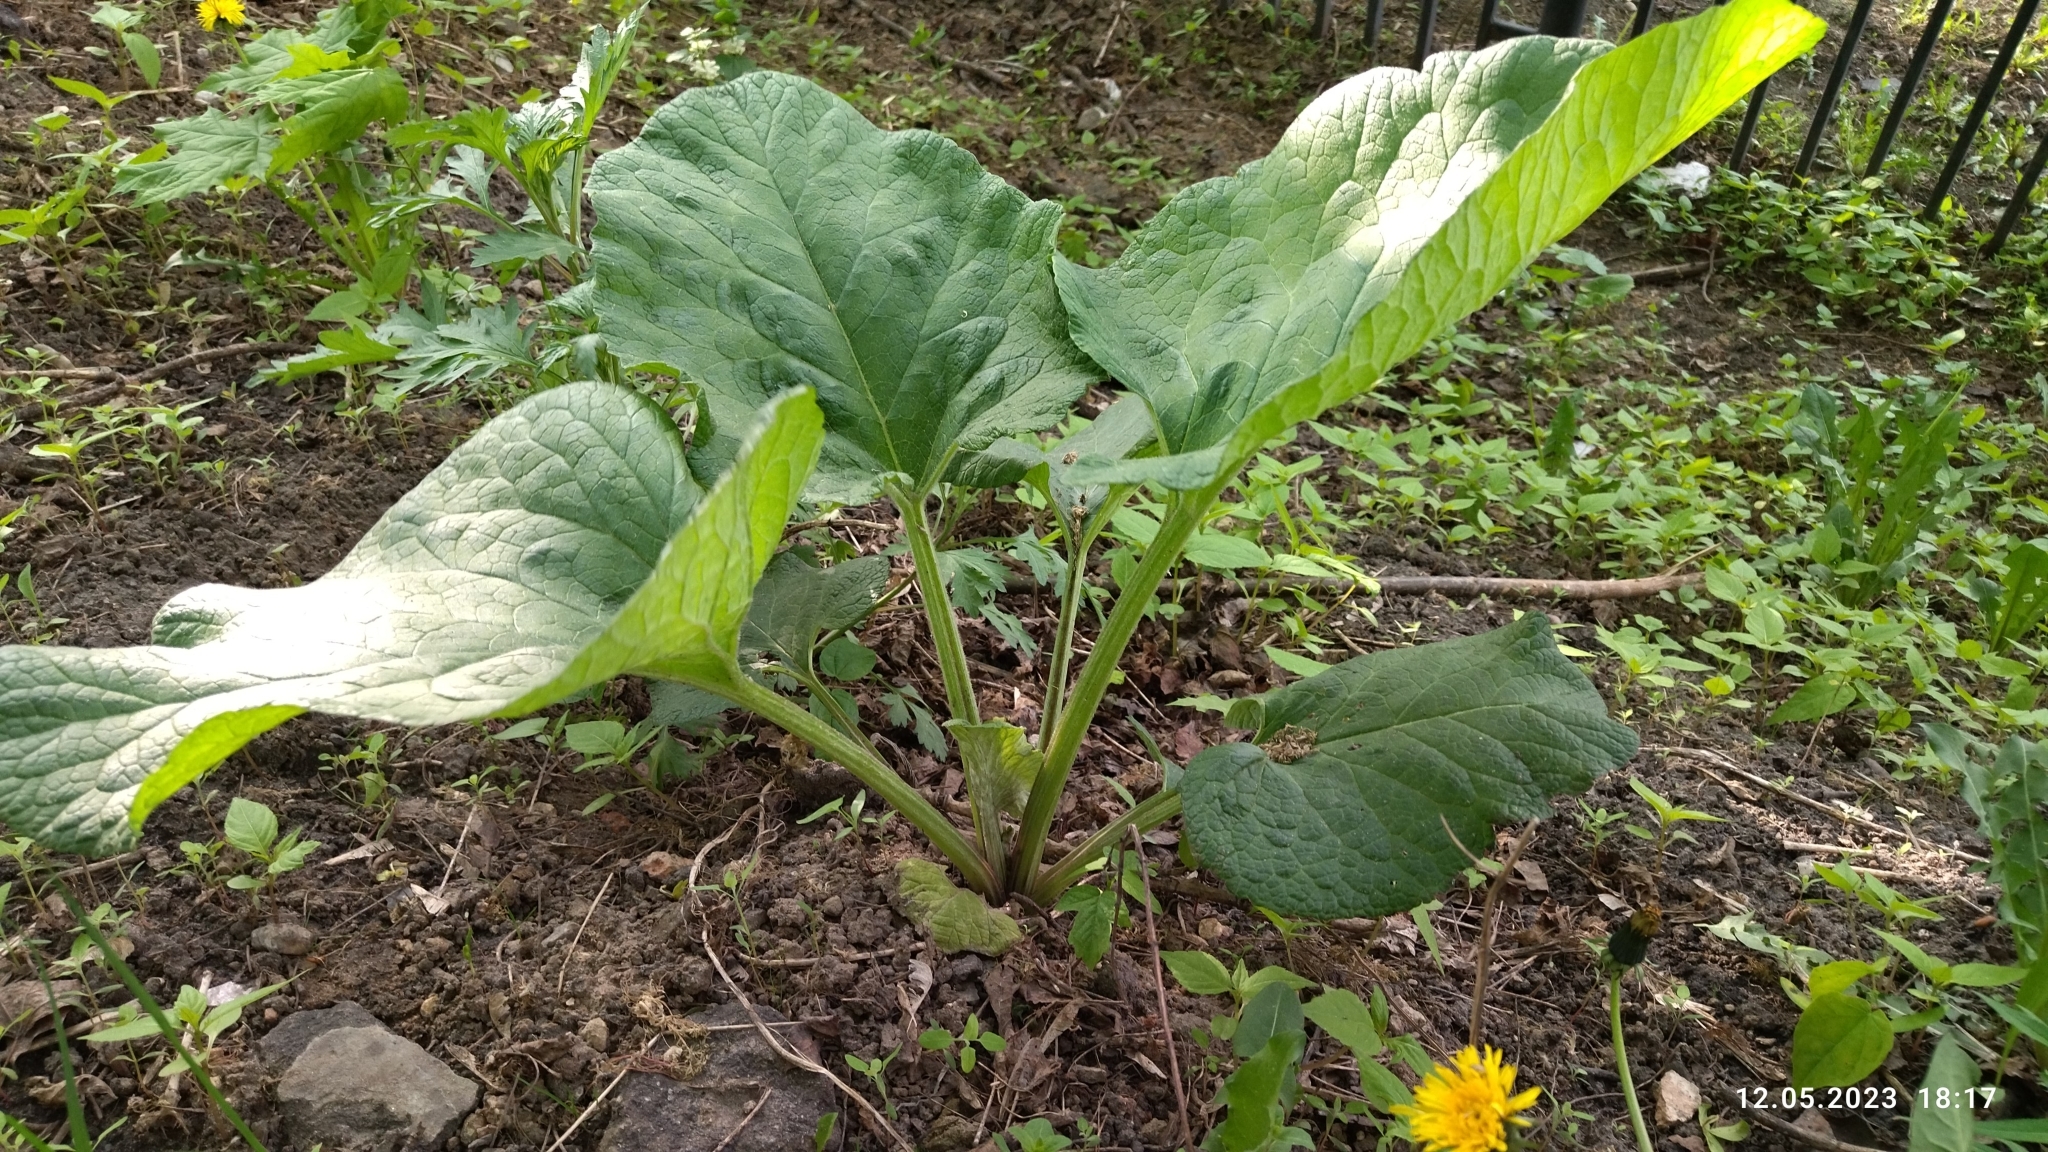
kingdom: Plantae
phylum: Tracheophyta
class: Magnoliopsida
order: Asterales
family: Asteraceae
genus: Arctium
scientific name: Arctium
